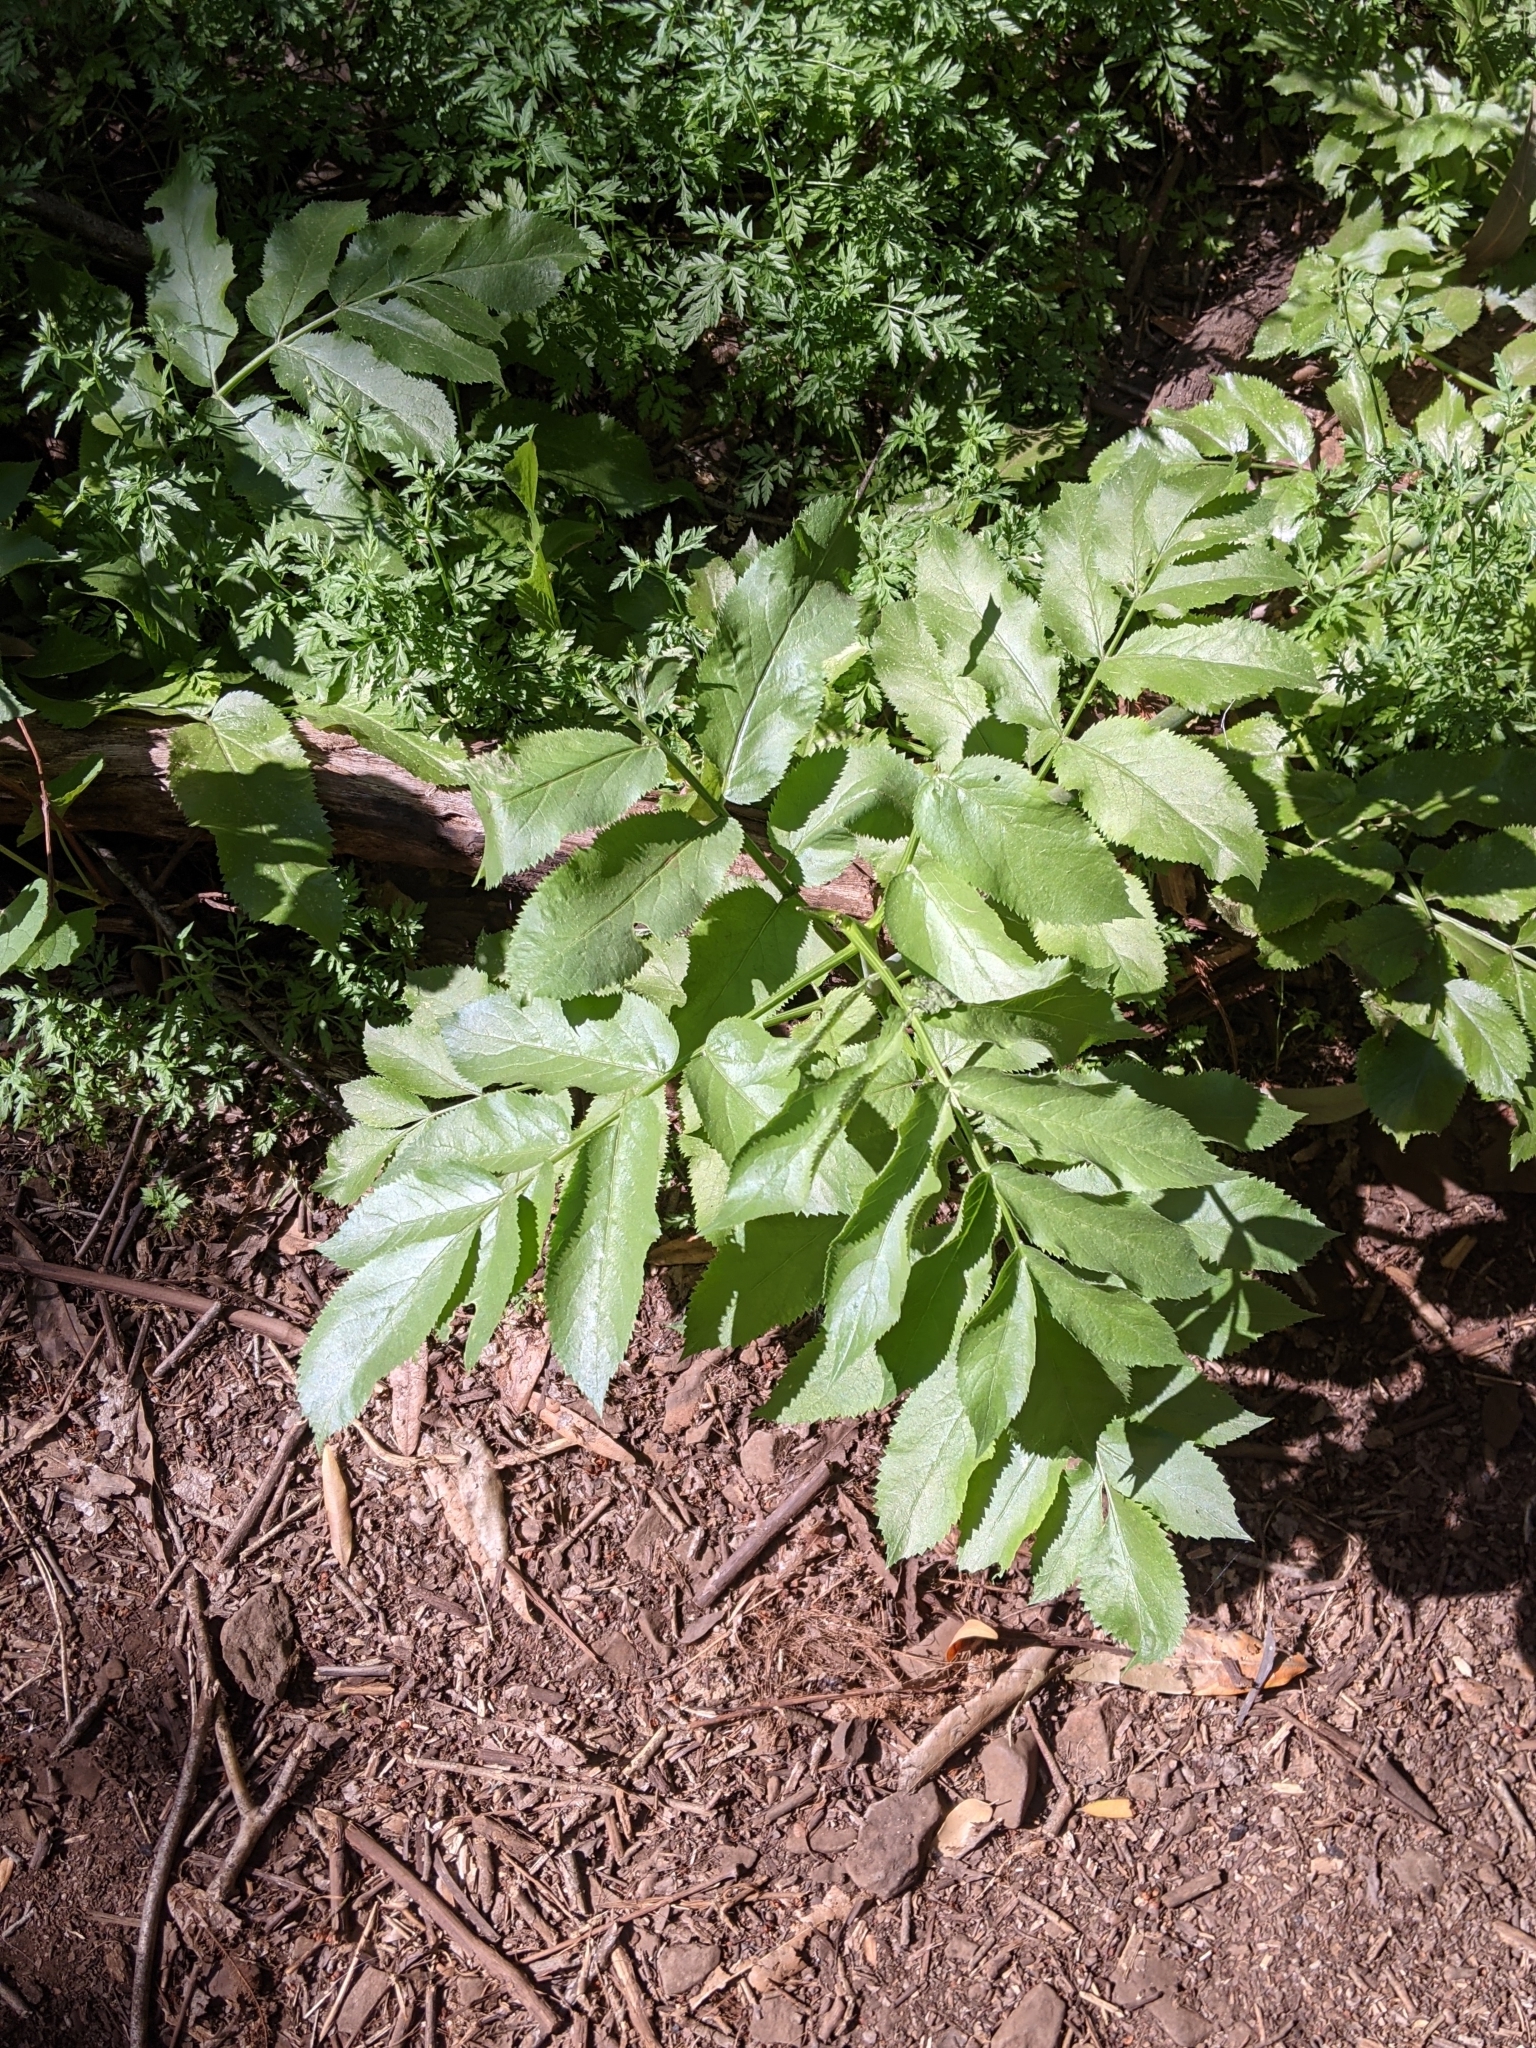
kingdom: Plantae
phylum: Tracheophyta
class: Magnoliopsida
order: Dipsacales
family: Viburnaceae
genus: Sambucus
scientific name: Sambucus cerulea
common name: Blue elder
